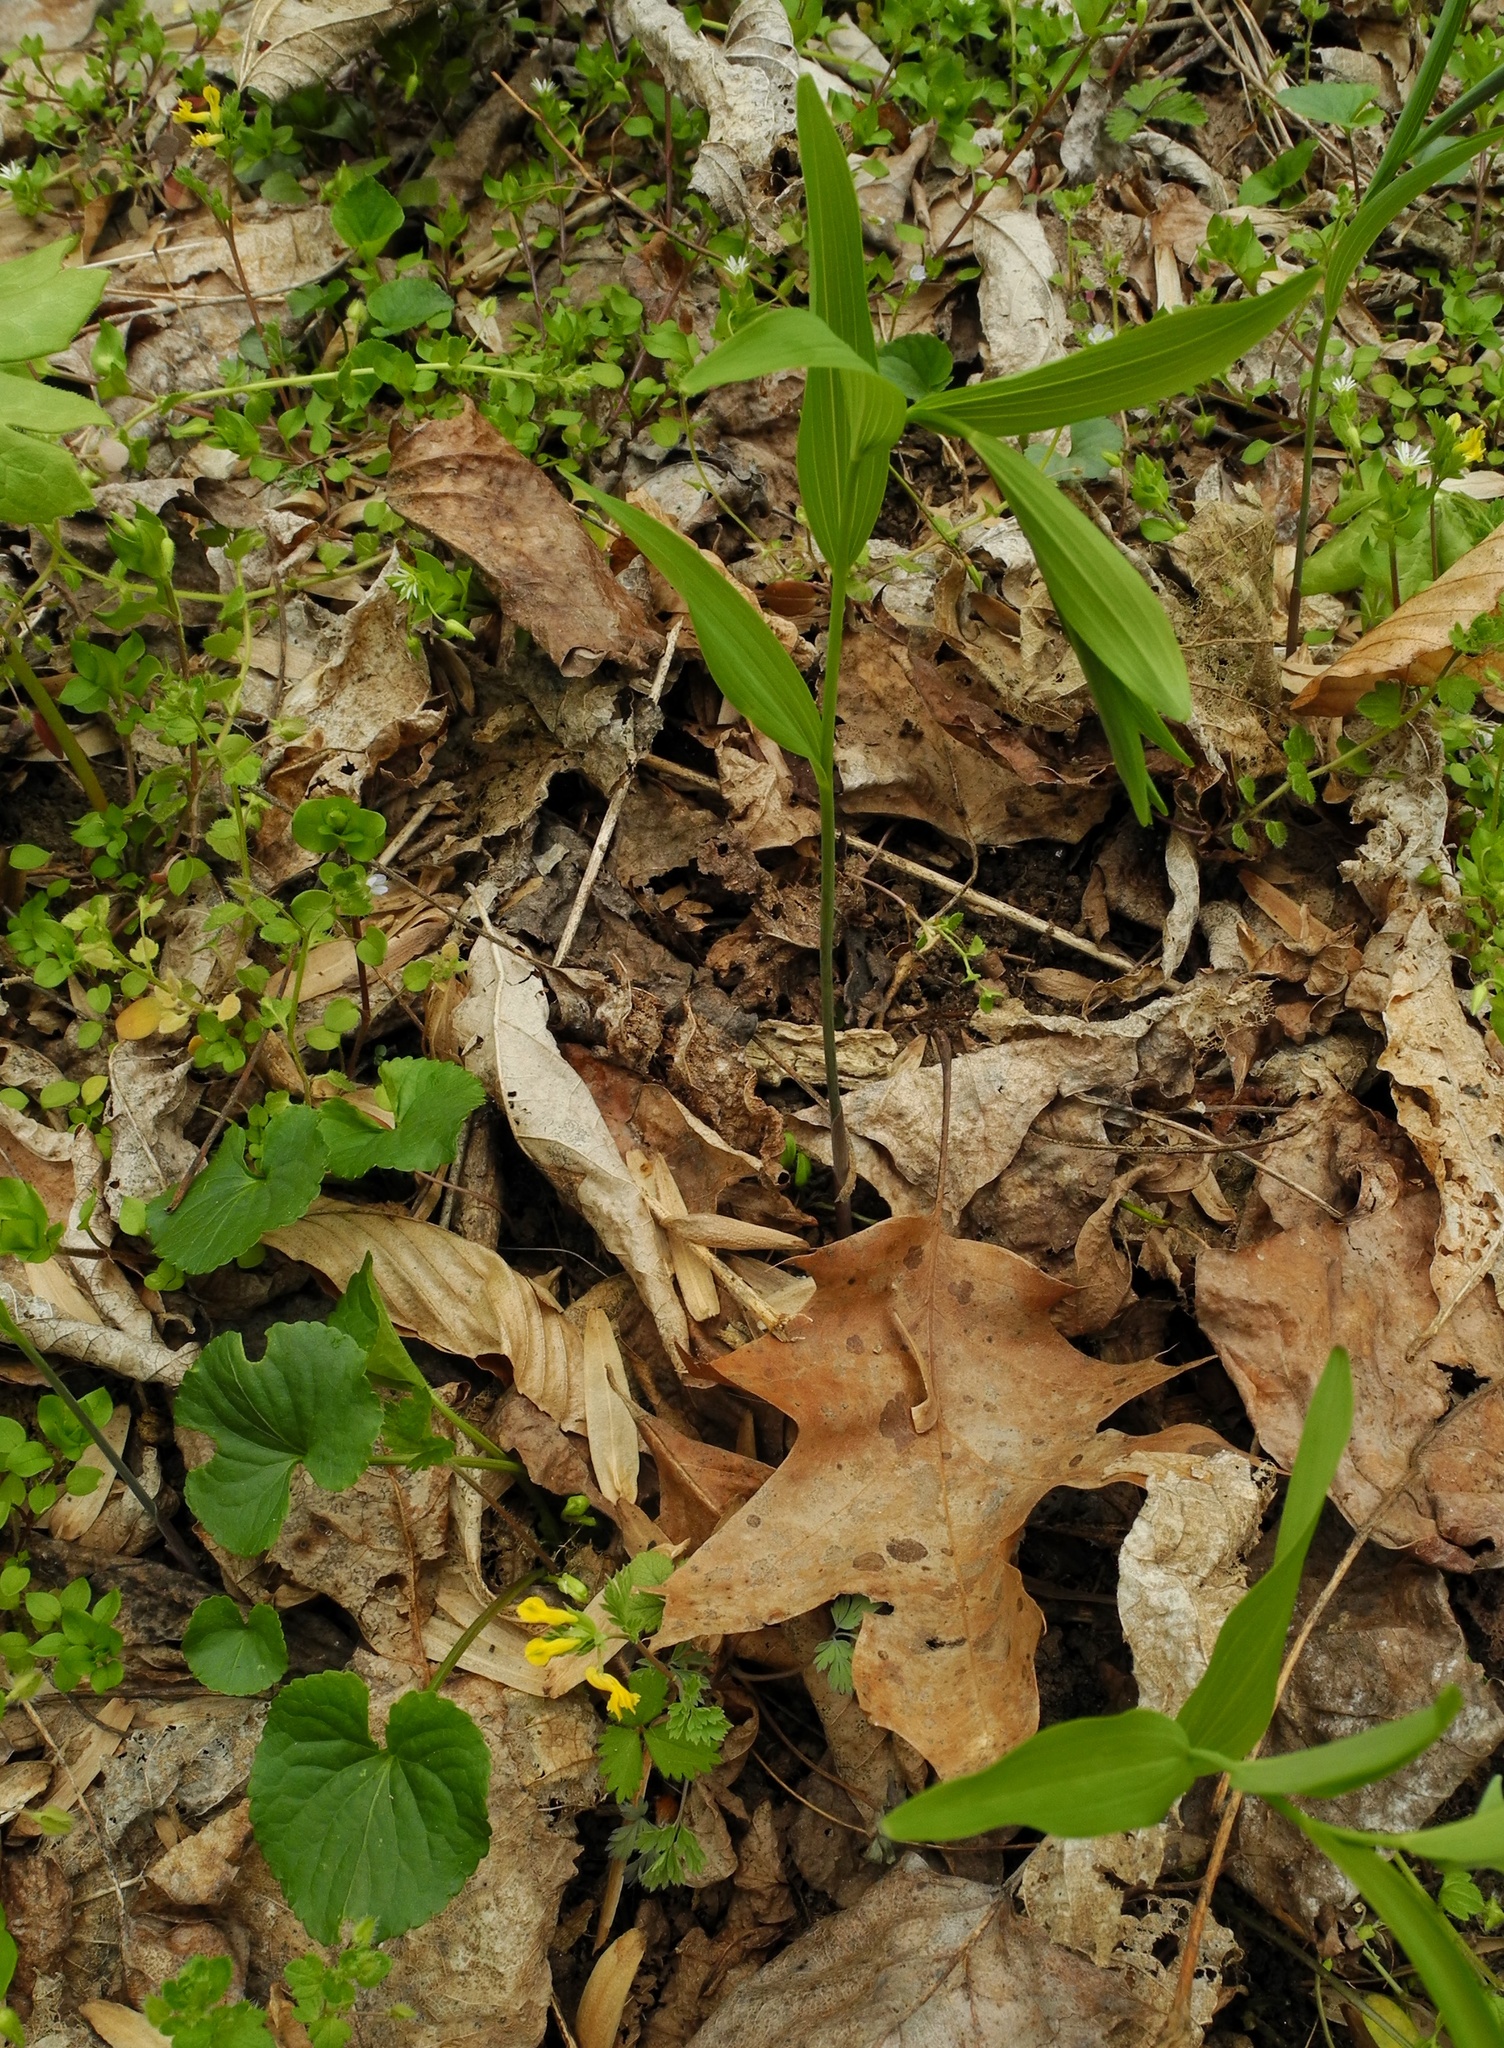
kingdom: Plantae
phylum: Tracheophyta
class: Liliopsida
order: Asparagales
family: Asparagaceae
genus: Polygonatum
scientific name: Polygonatum biflorum
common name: American solomon's-seal
